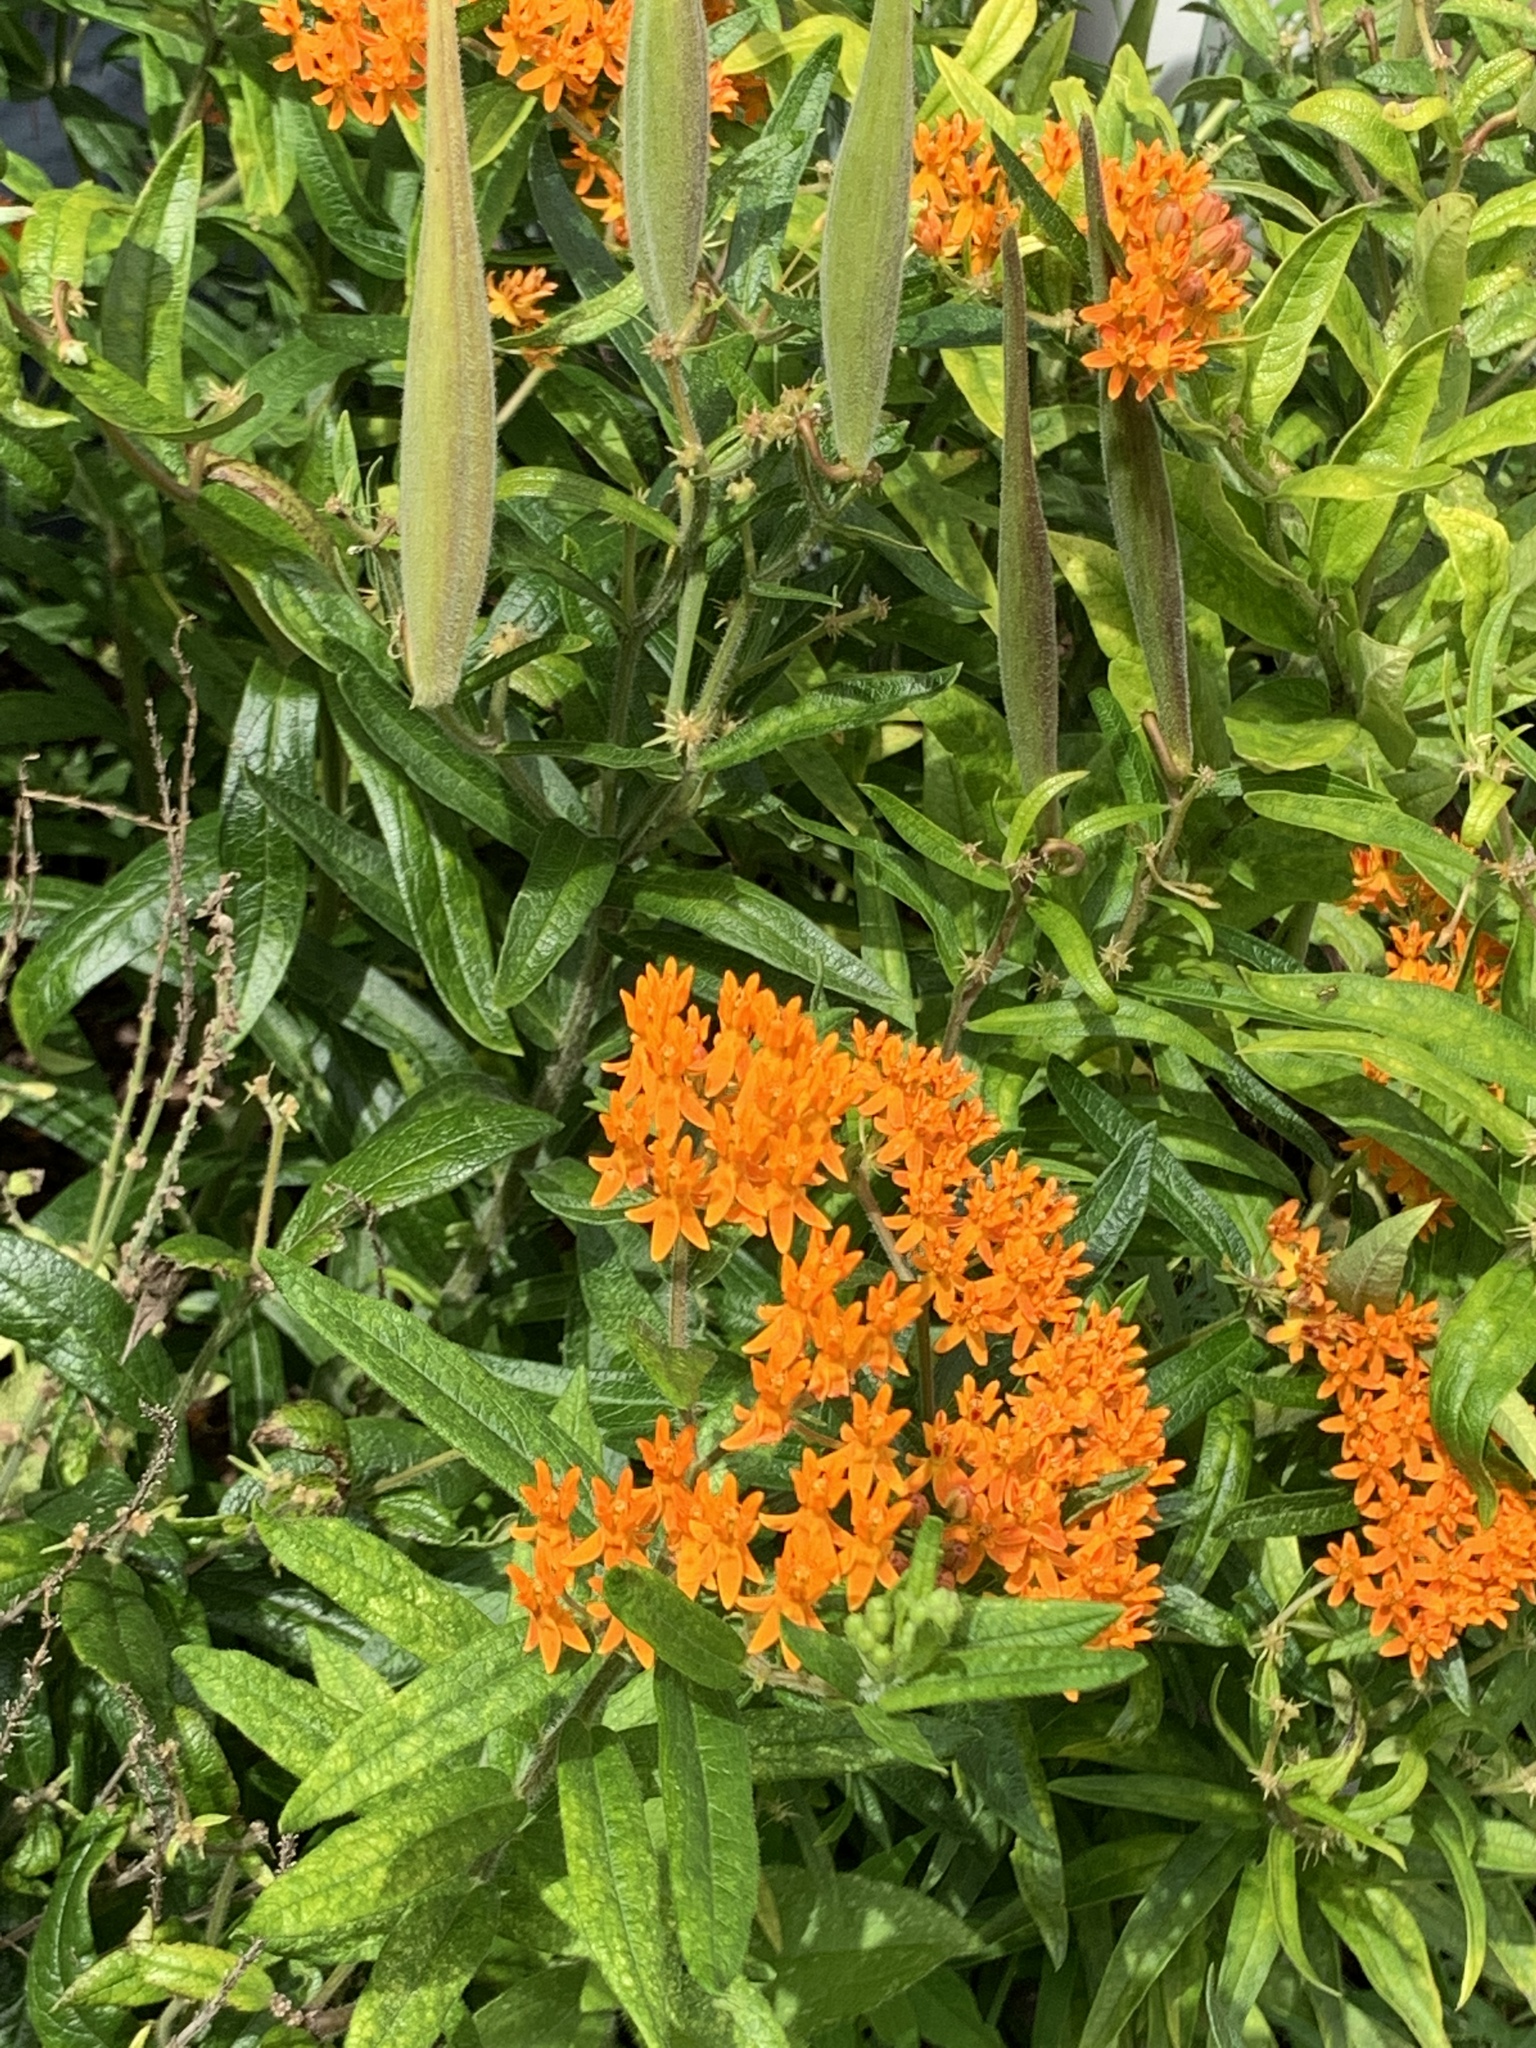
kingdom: Plantae
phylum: Tracheophyta
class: Magnoliopsida
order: Gentianales
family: Apocynaceae
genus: Asclepias
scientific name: Asclepias tuberosa
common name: Butterfly milkweed
